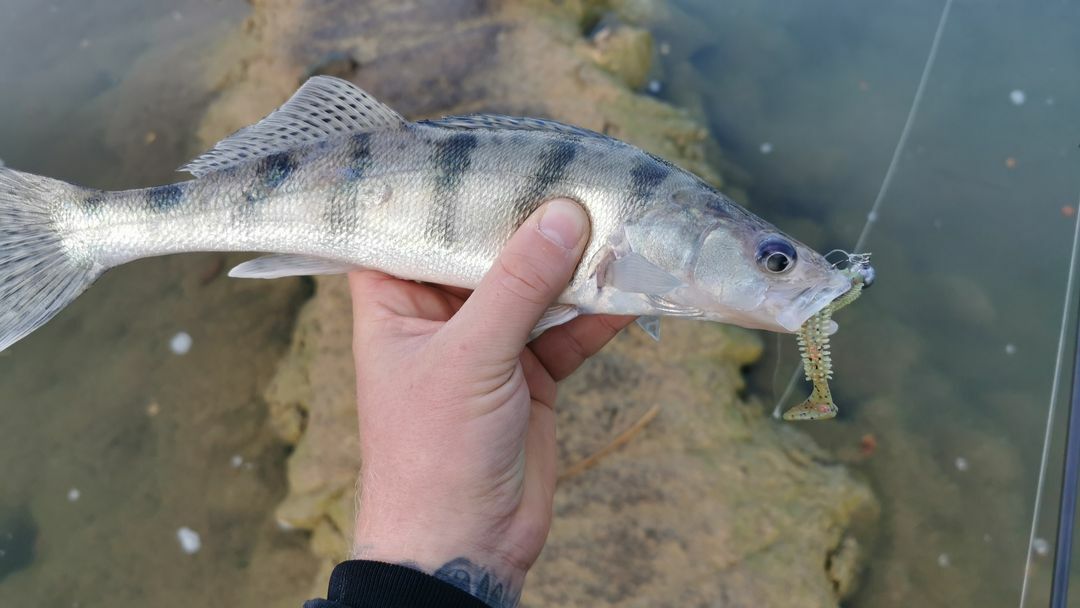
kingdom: Animalia
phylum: Chordata
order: Perciformes
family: Percidae
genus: Sander
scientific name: Sander volgensis
